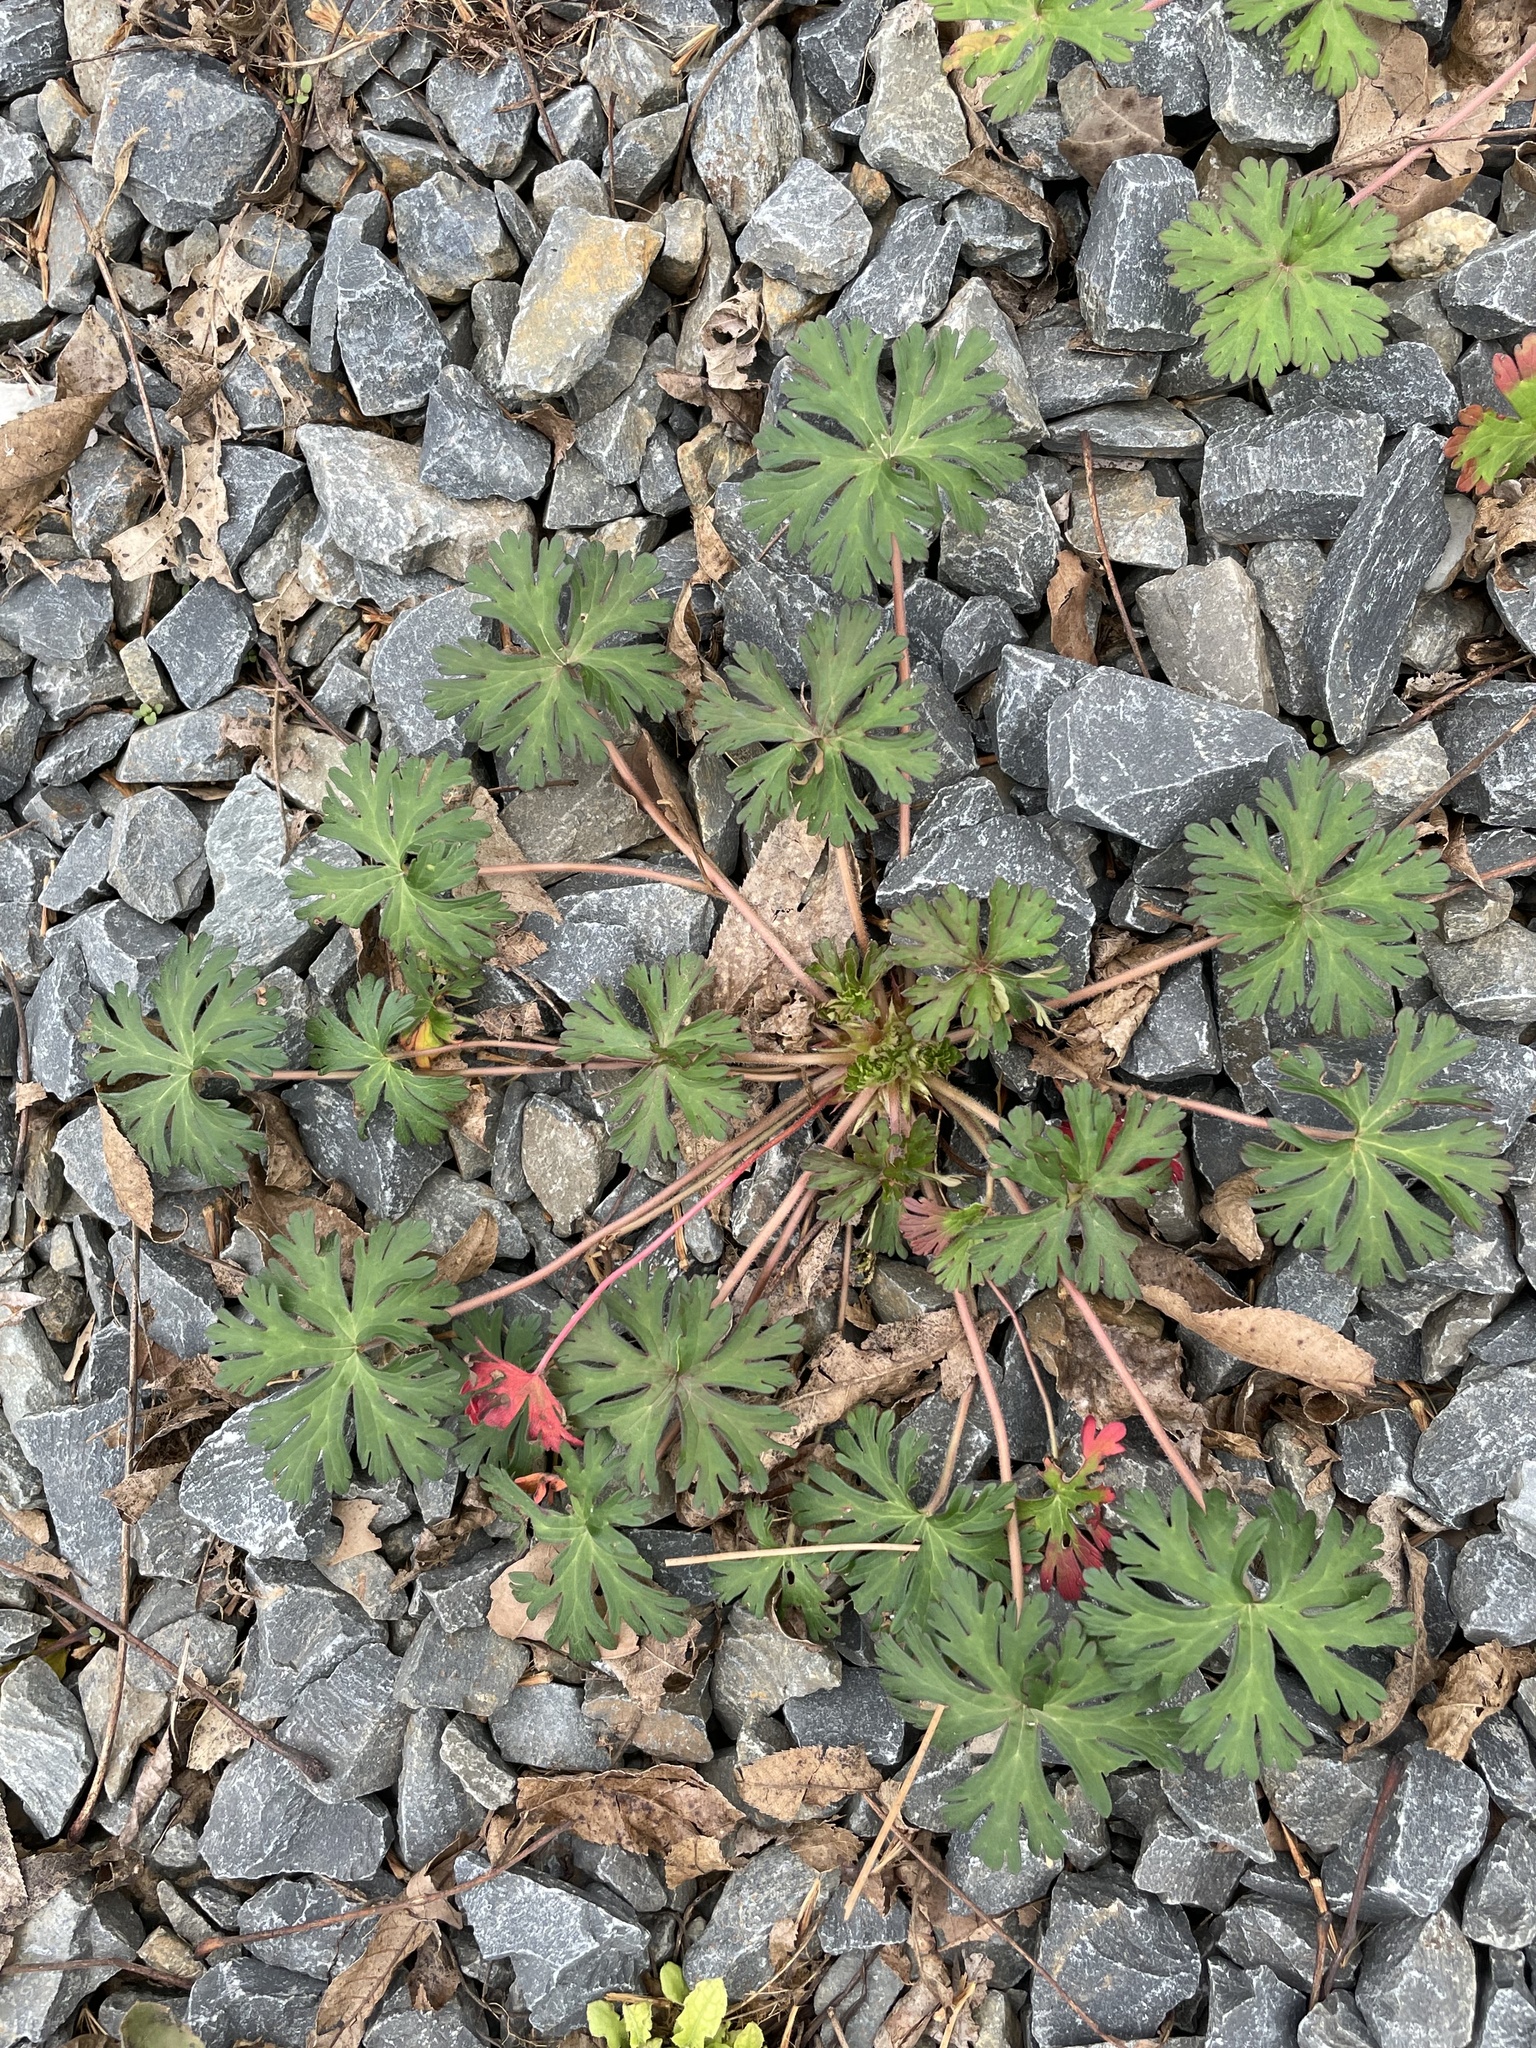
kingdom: Plantae
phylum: Tracheophyta
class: Magnoliopsida
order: Geraniales
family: Geraniaceae
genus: Geranium
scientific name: Geranium carolinianum
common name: Carolina crane's-bill
